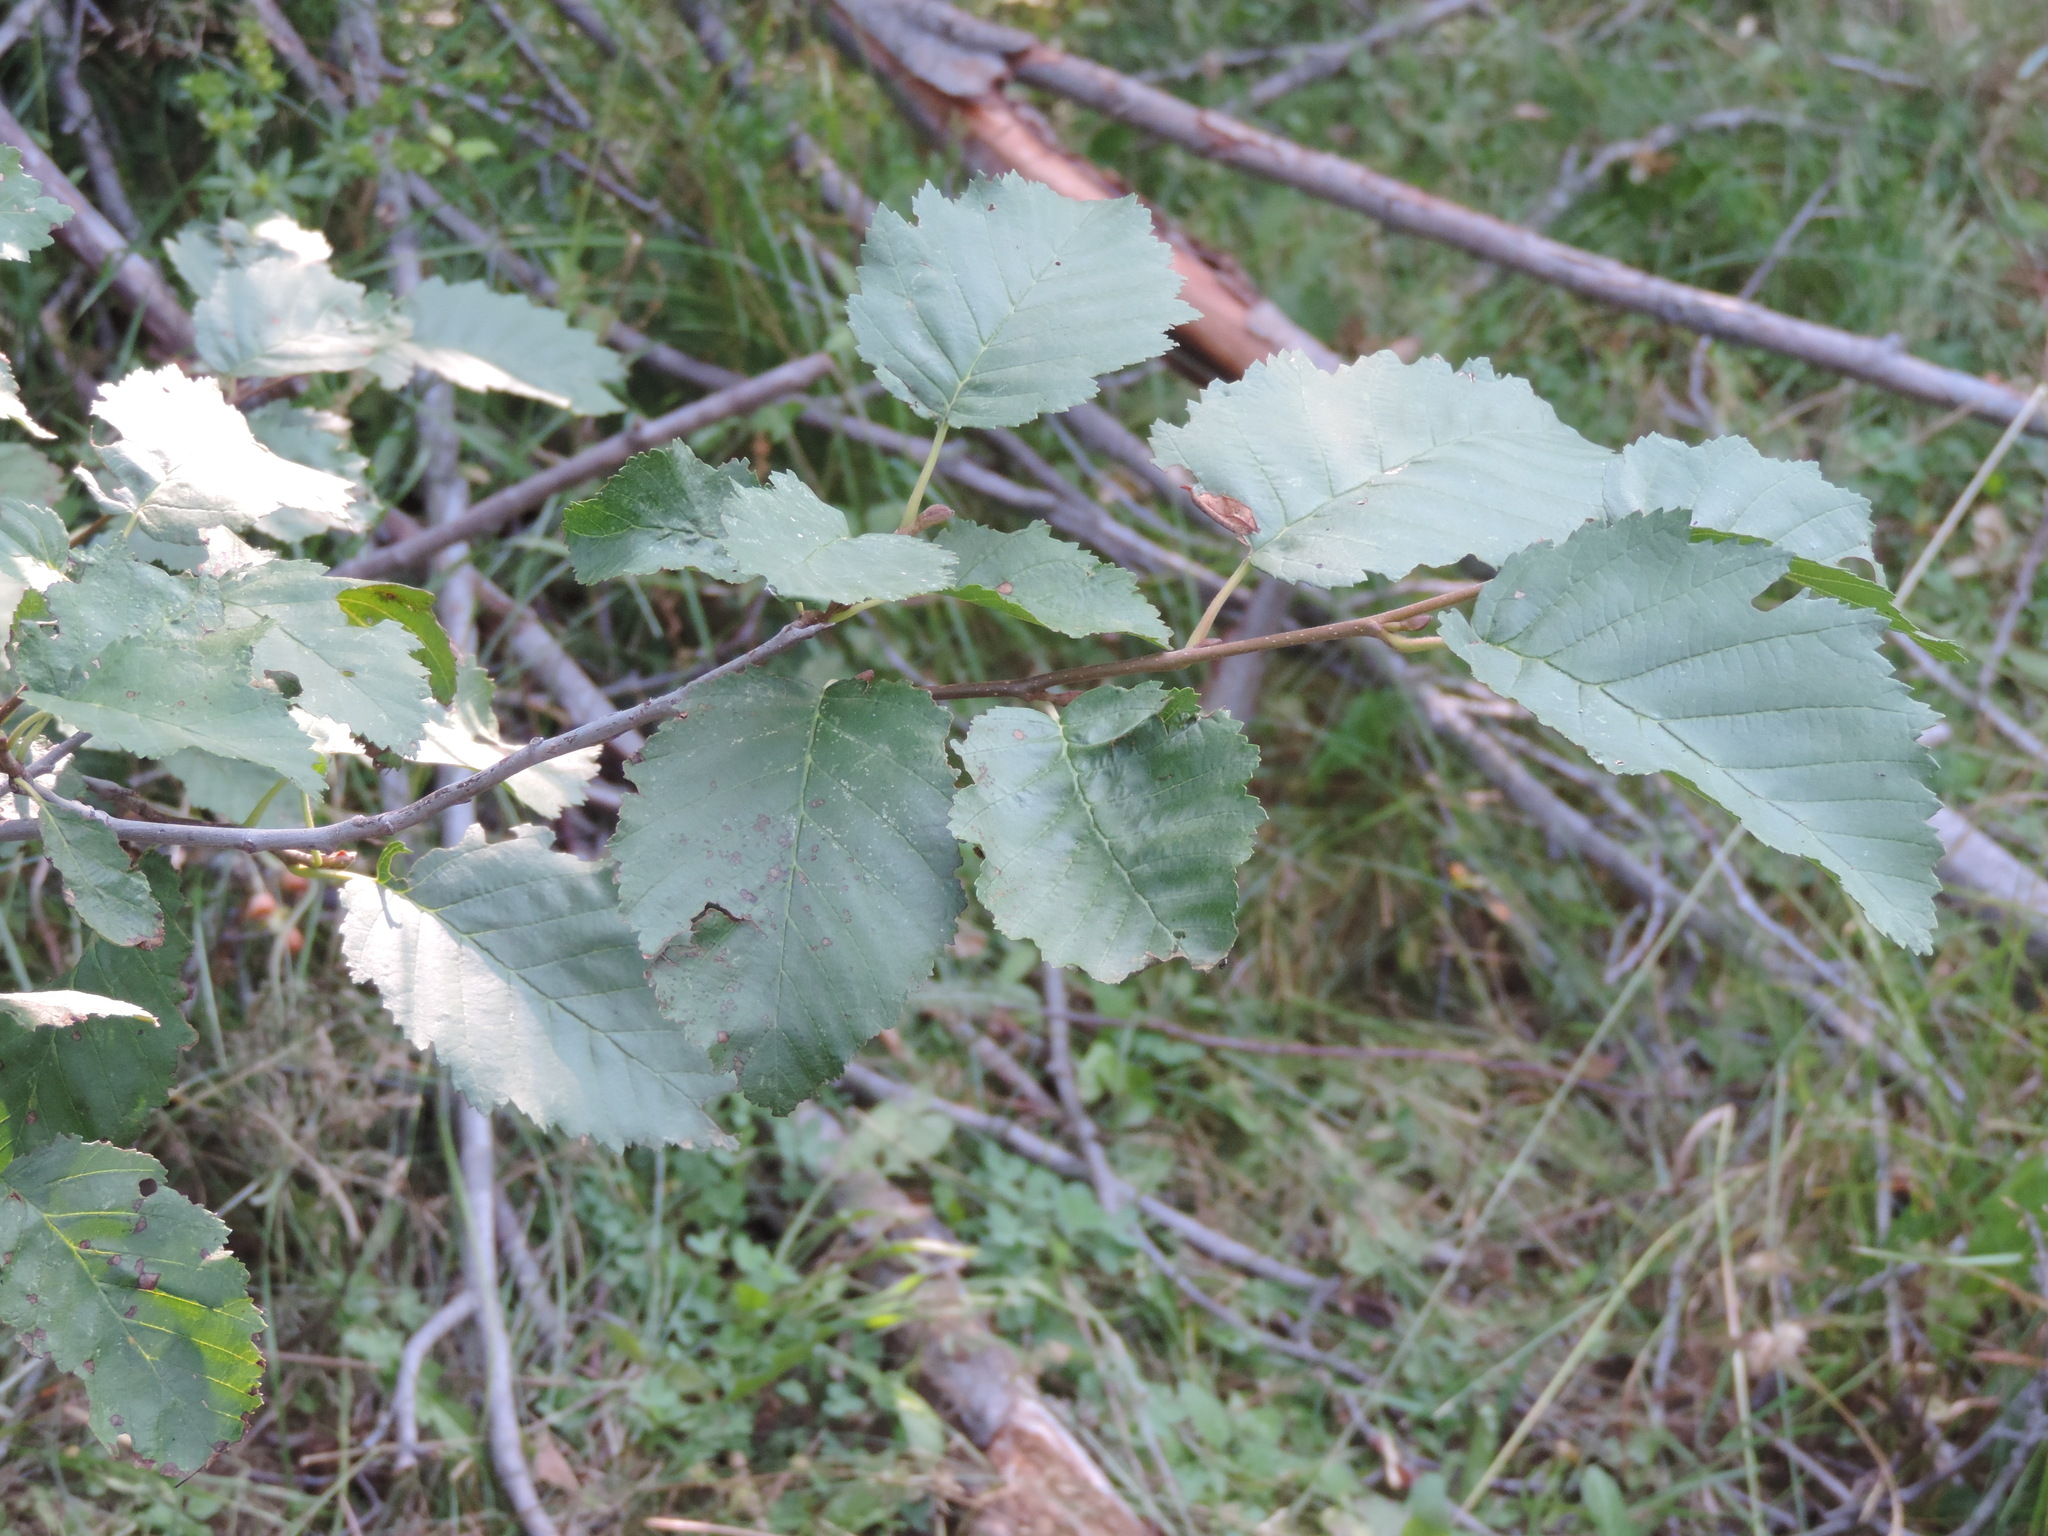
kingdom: Plantae
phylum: Tracheophyta
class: Magnoliopsida
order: Fagales
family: Betulaceae
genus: Alnus
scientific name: Alnus incana
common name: Grey alder
